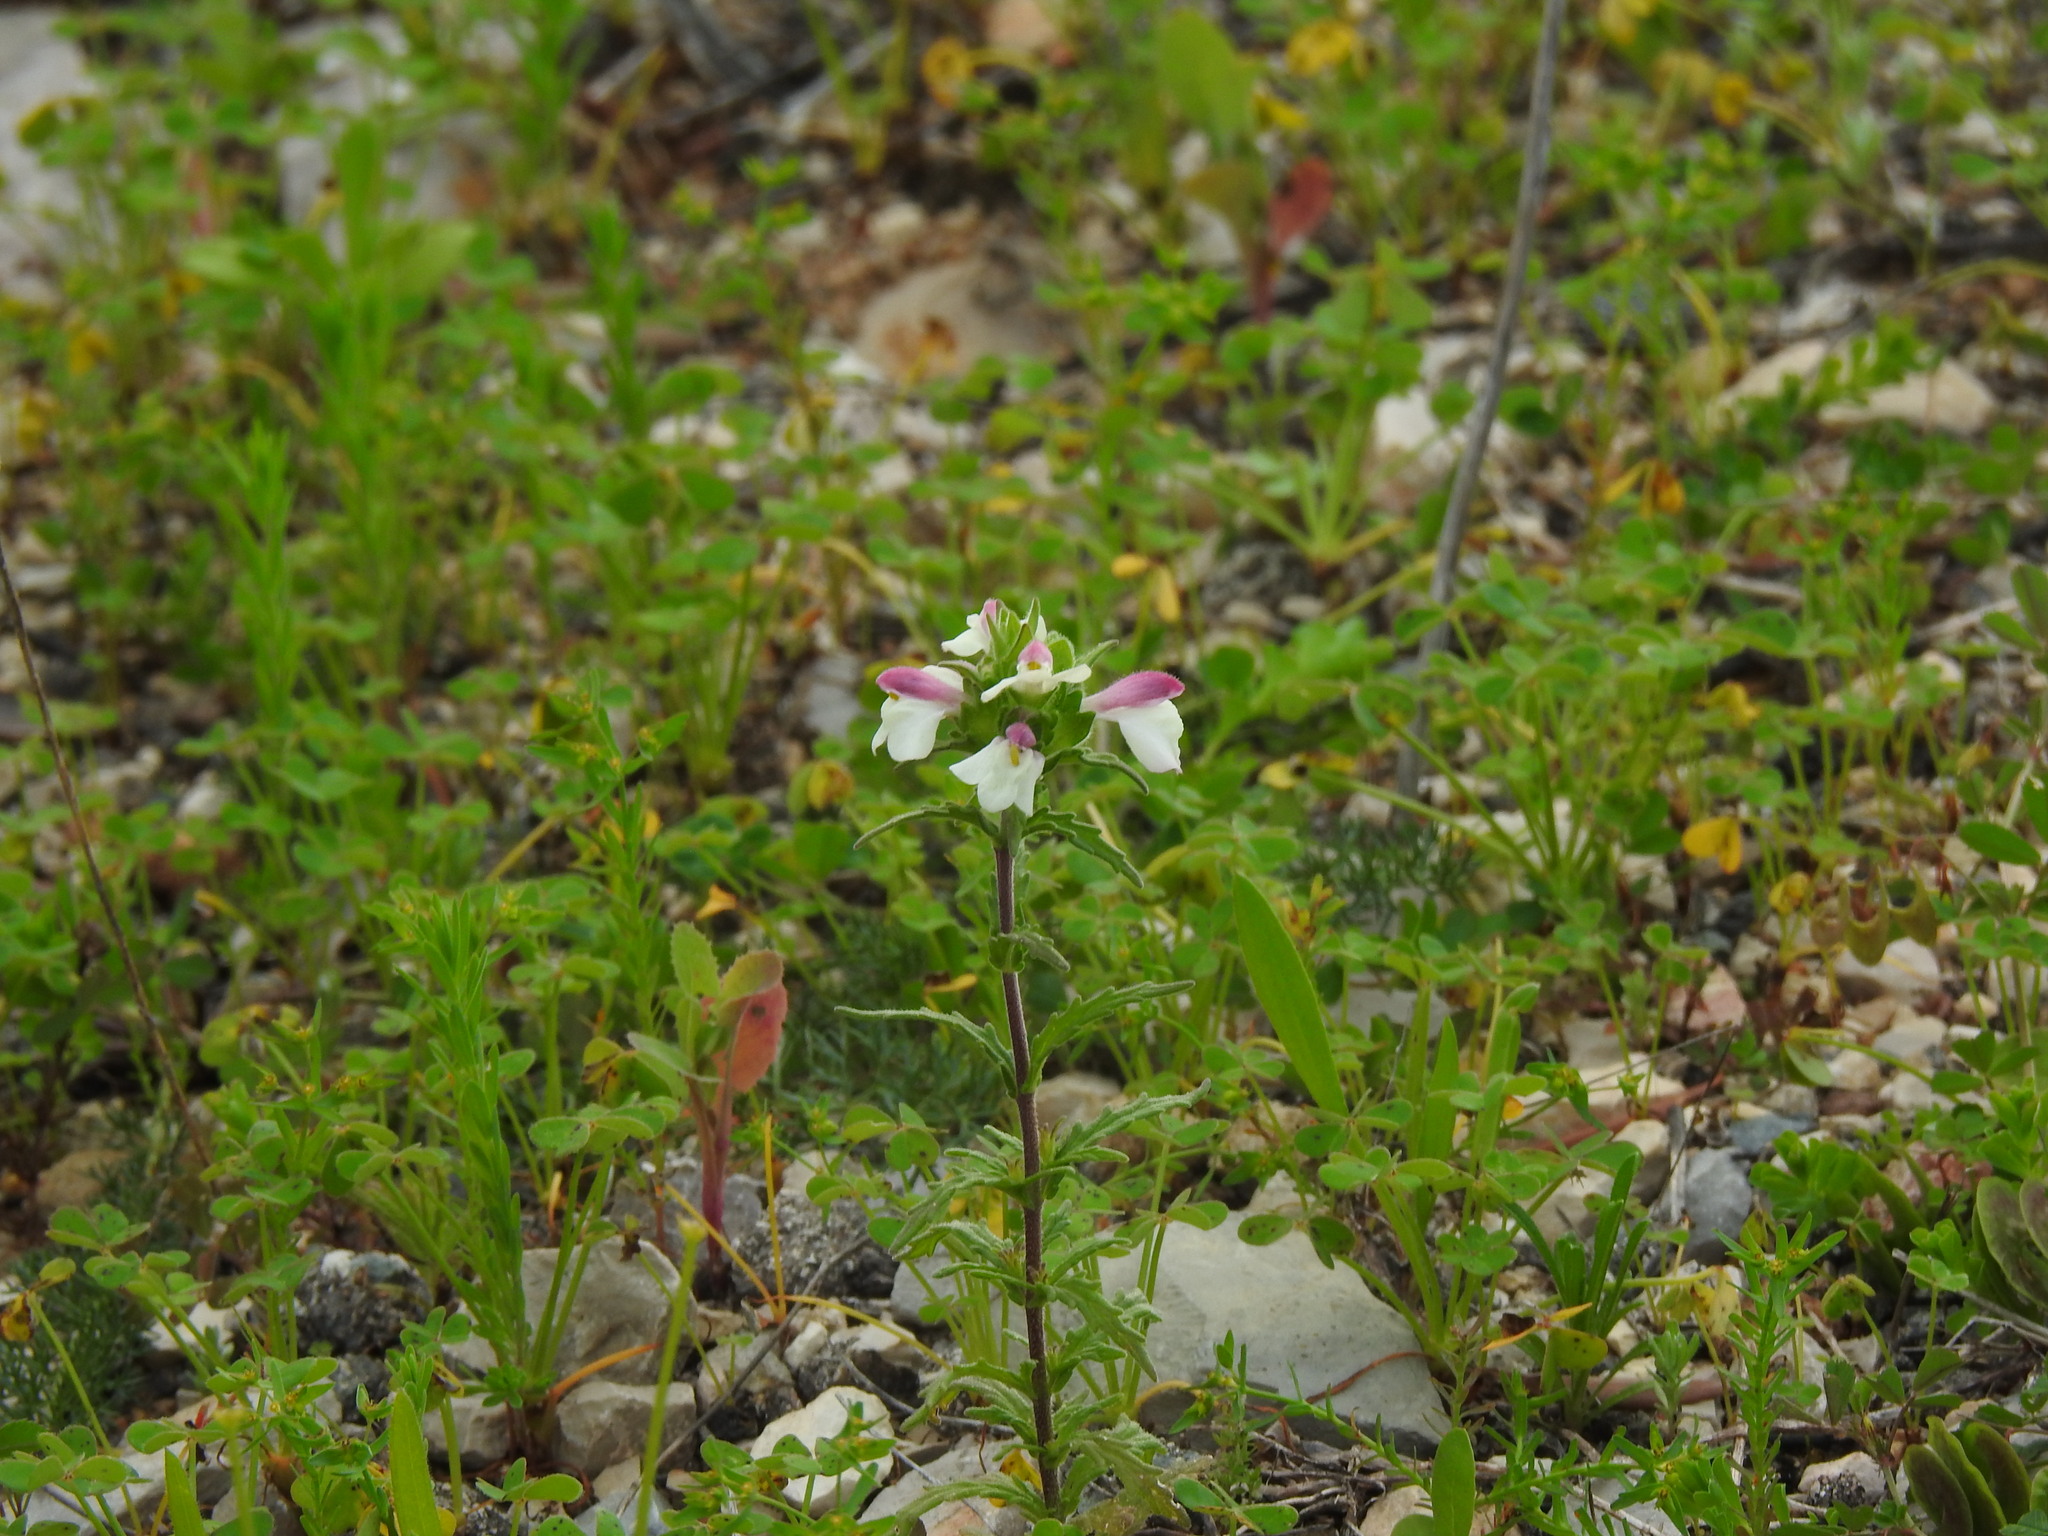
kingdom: Plantae
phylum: Tracheophyta
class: Magnoliopsida
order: Lamiales
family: Orobanchaceae
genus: Bellardia
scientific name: Bellardia trixago
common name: Mediterranean lineseed
